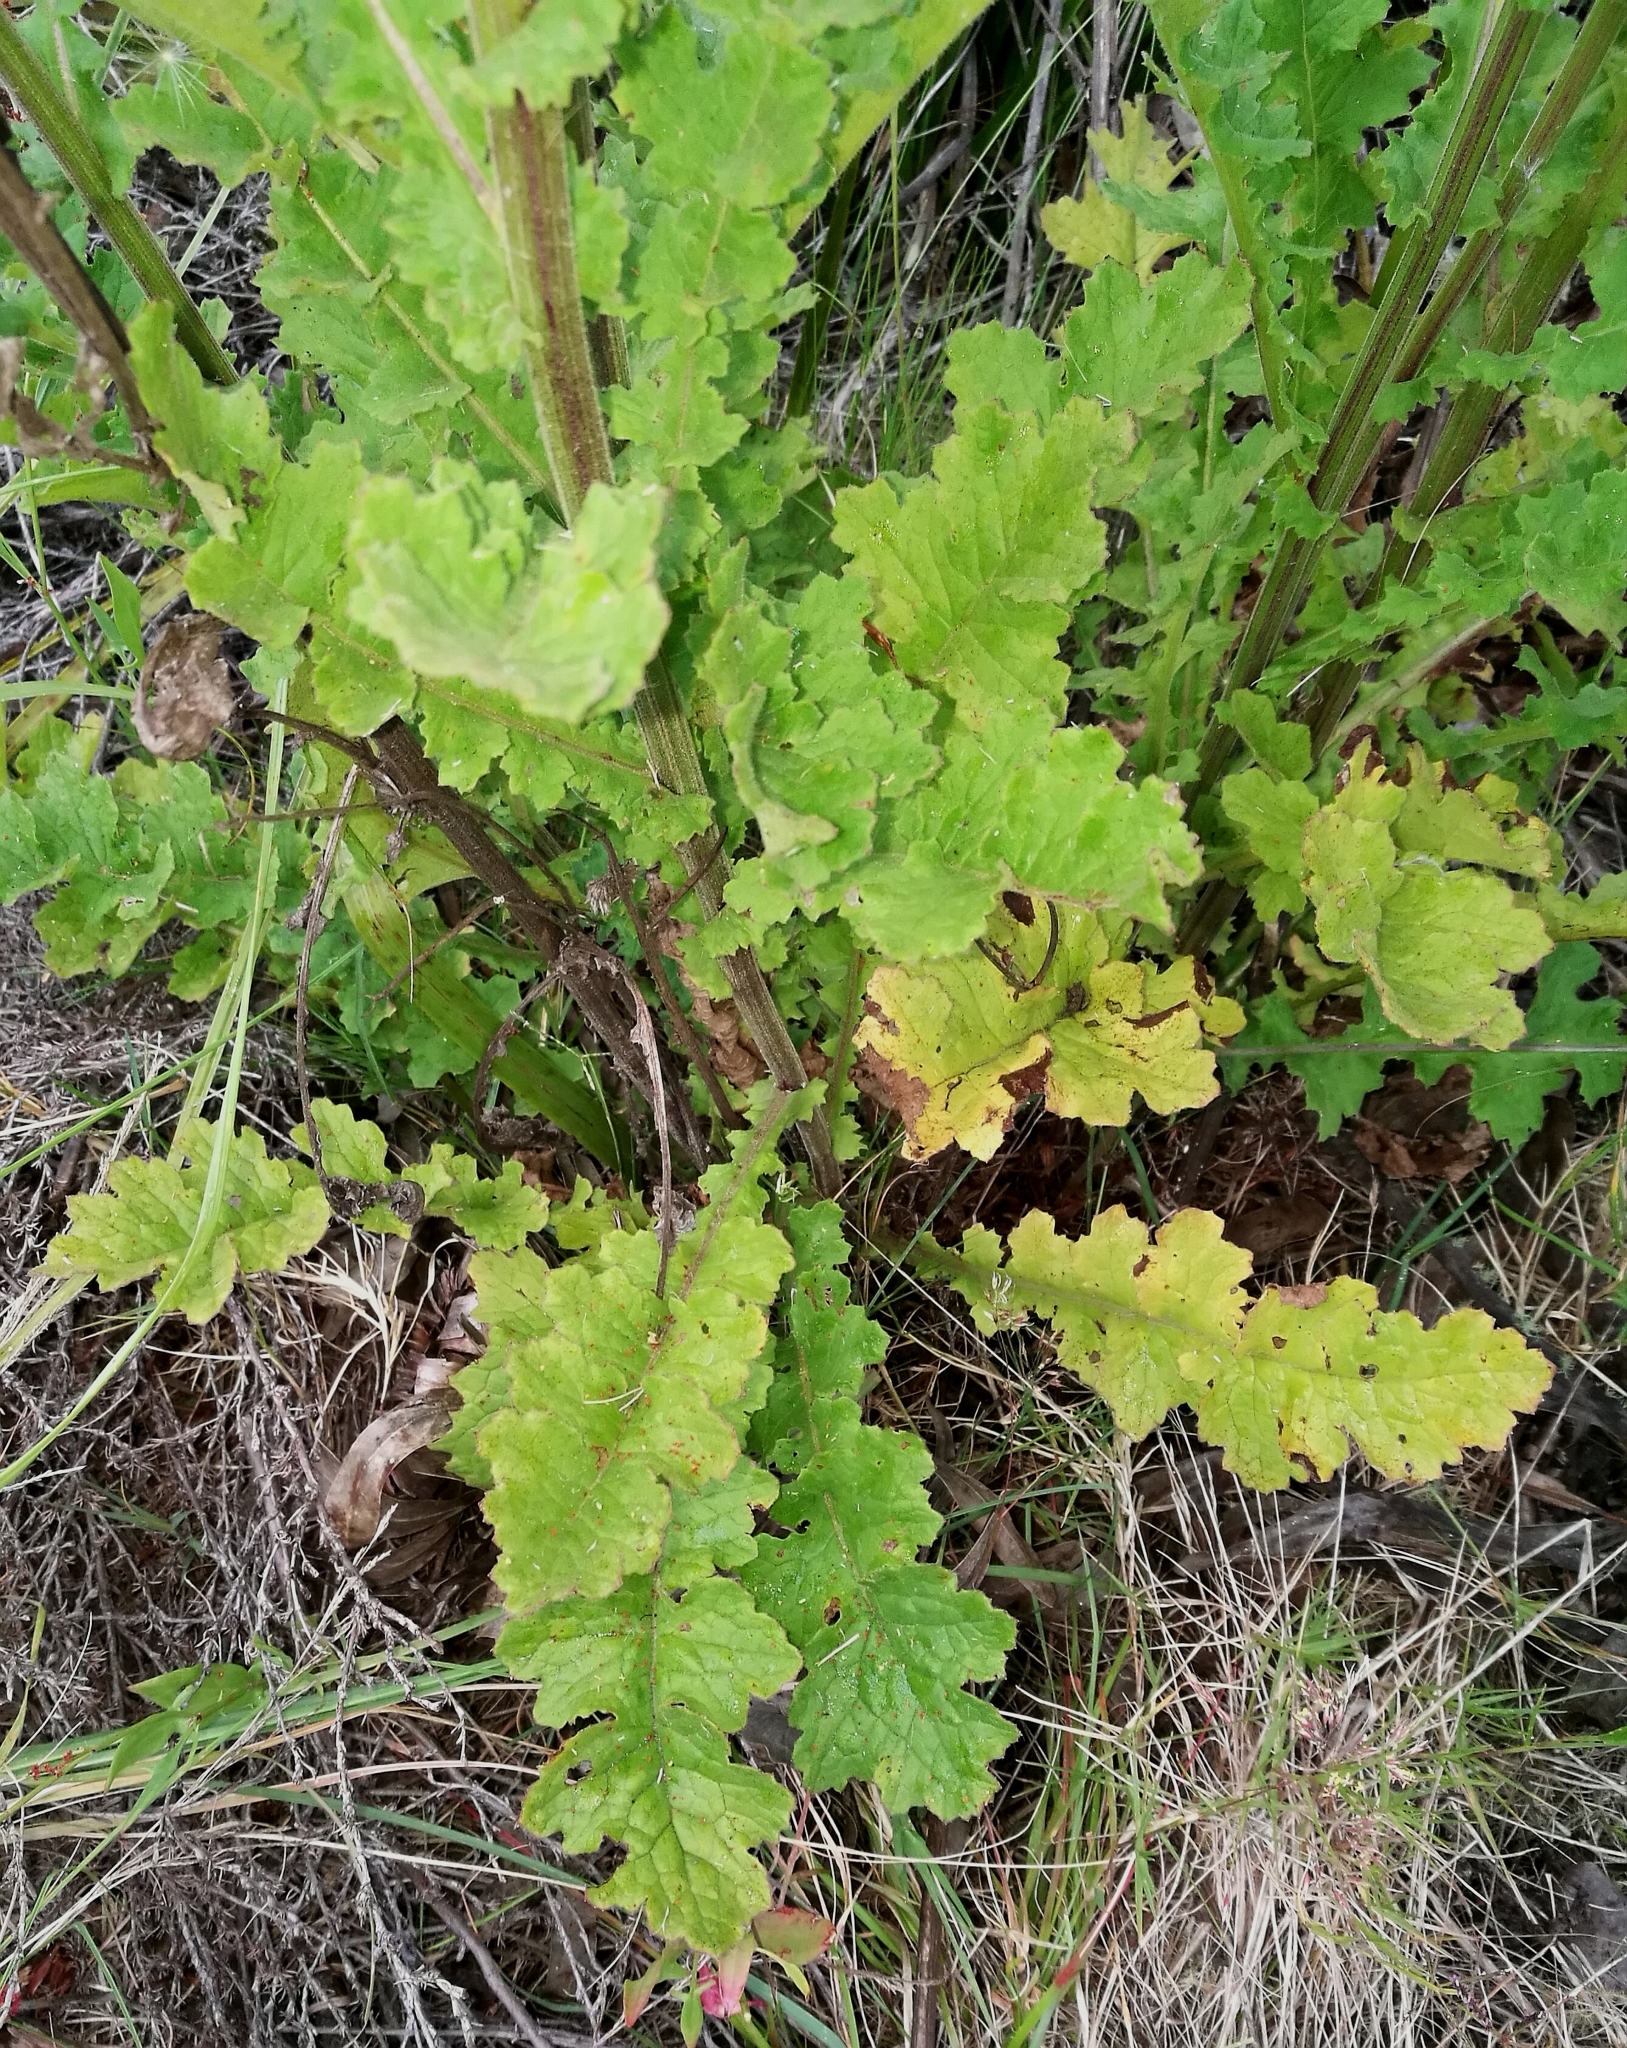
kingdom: Plantae
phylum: Tracheophyta
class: Magnoliopsida
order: Asterales
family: Asteraceae
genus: Senecio
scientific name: Senecio purpureus
